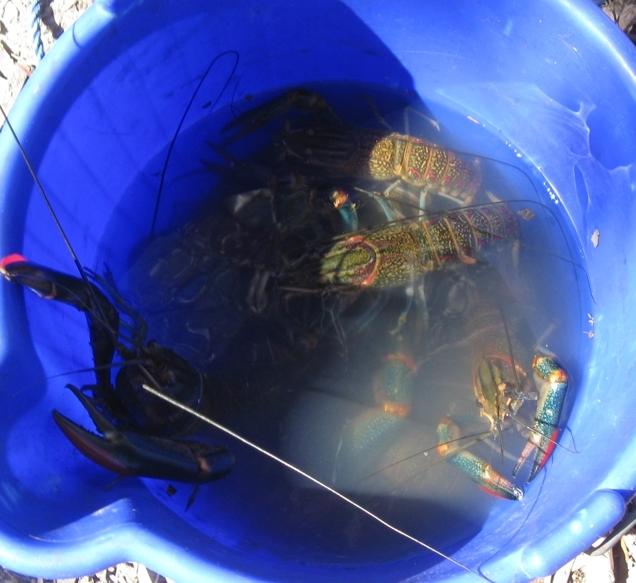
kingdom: Animalia
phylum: Arthropoda
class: Malacostraca
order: Decapoda
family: Parastacidae
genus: Cherax
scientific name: Cherax quadricarinatus
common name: Redclaw
